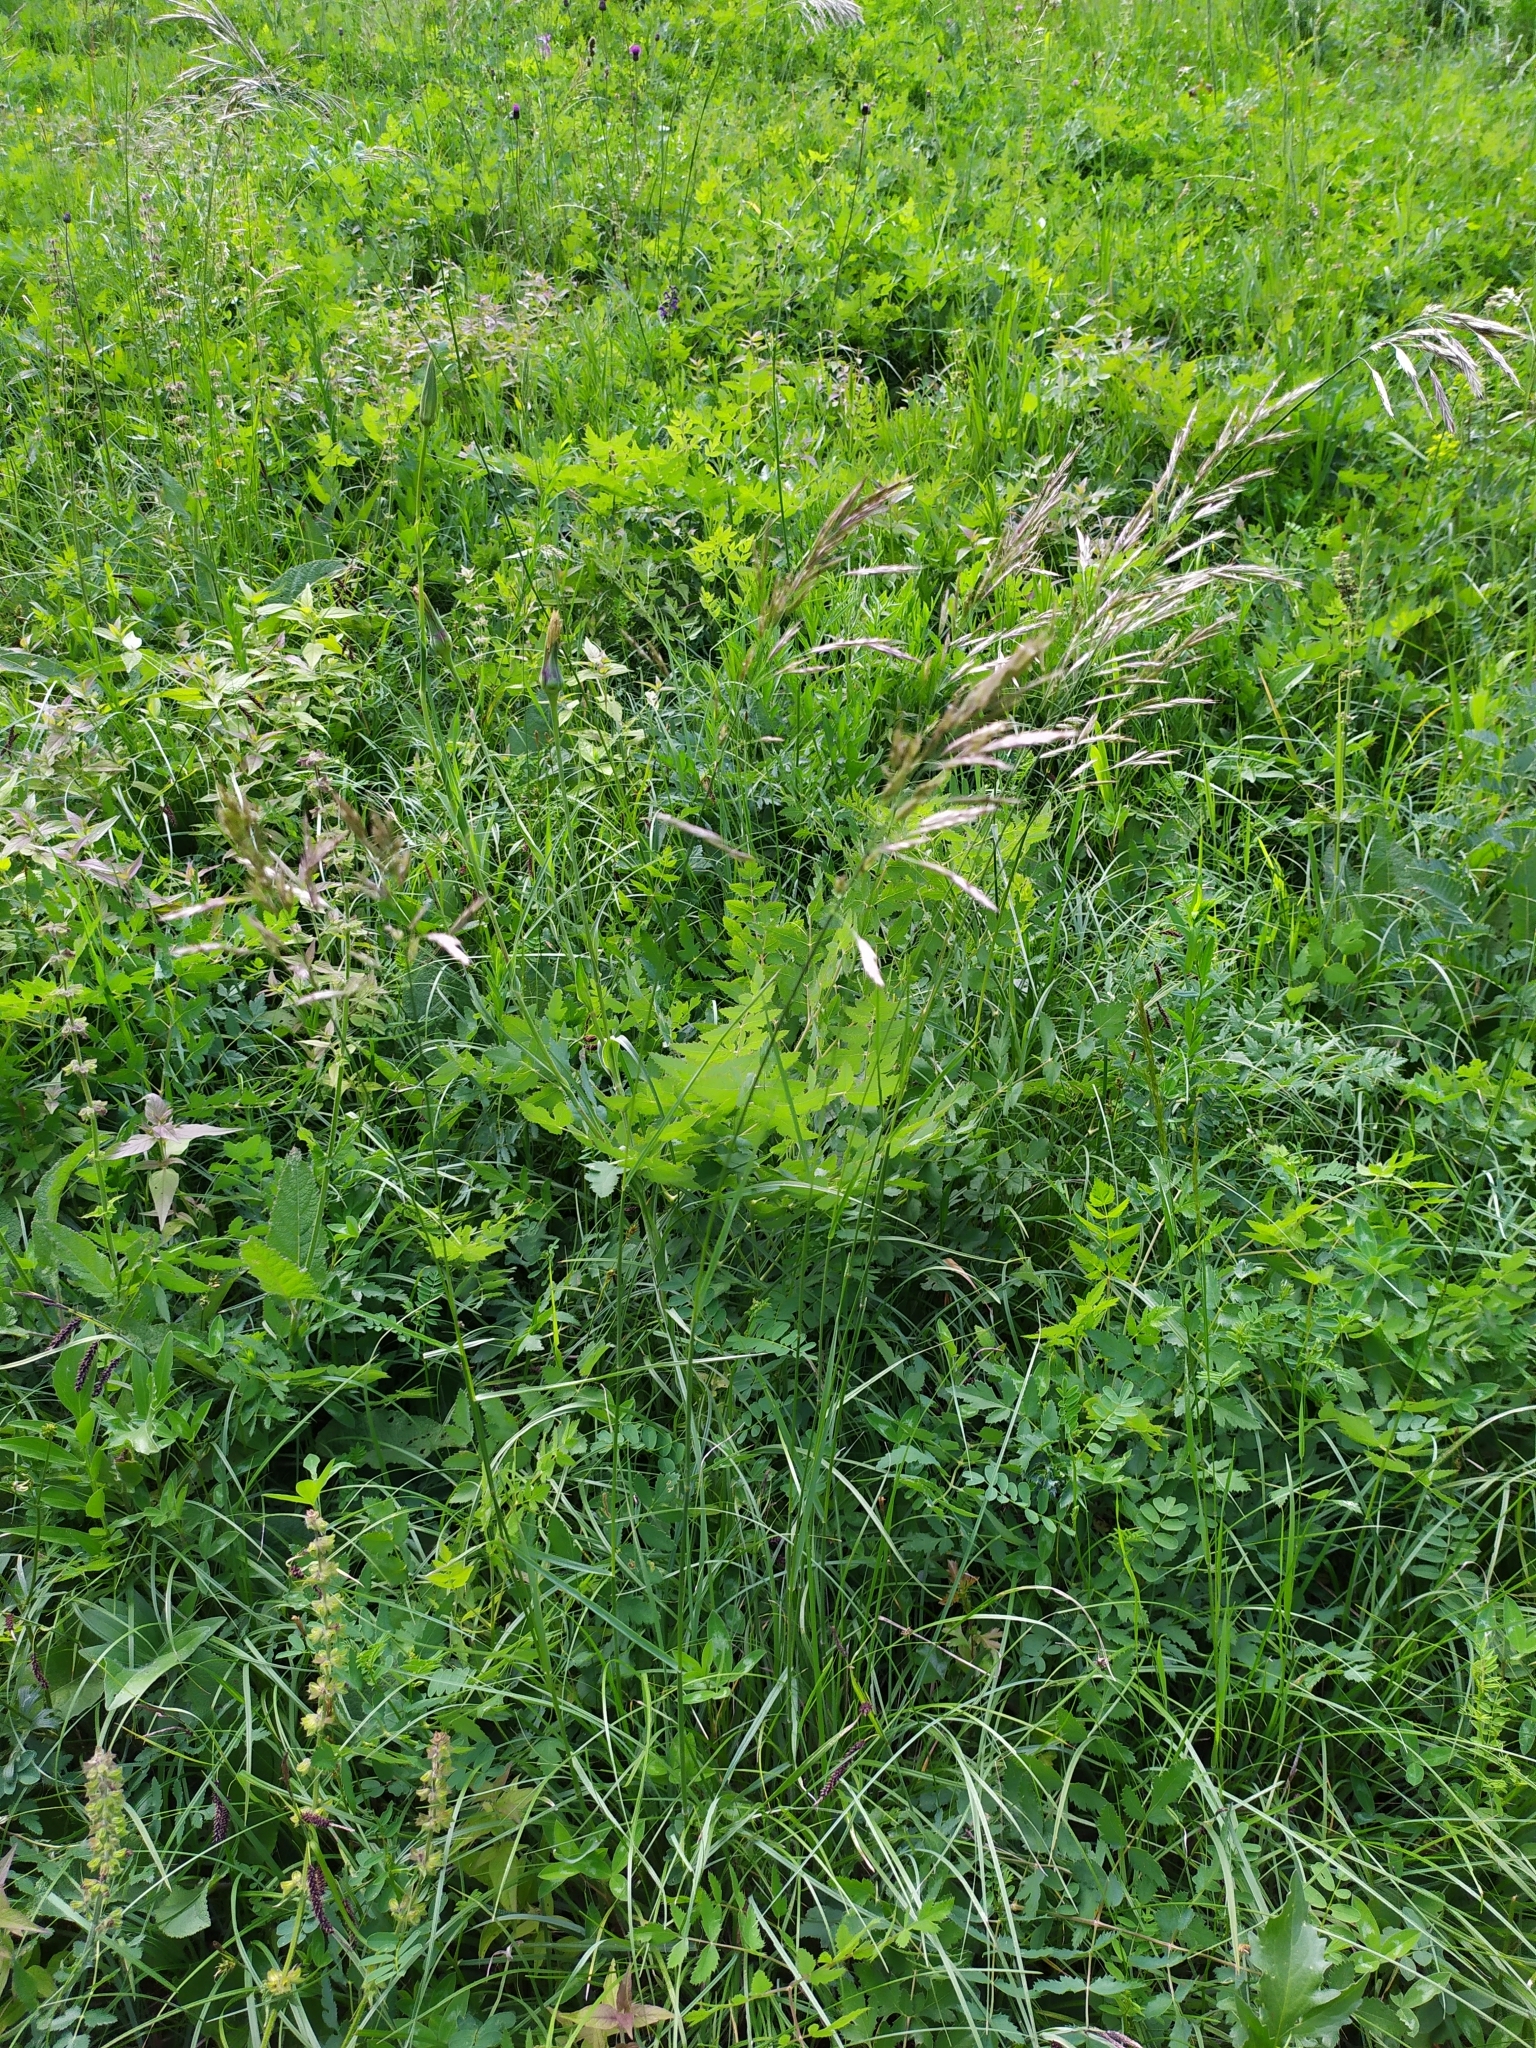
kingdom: Plantae
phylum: Tracheophyta
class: Liliopsida
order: Poales
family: Poaceae
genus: Bromus
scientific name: Bromus erectus
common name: Erect brome
